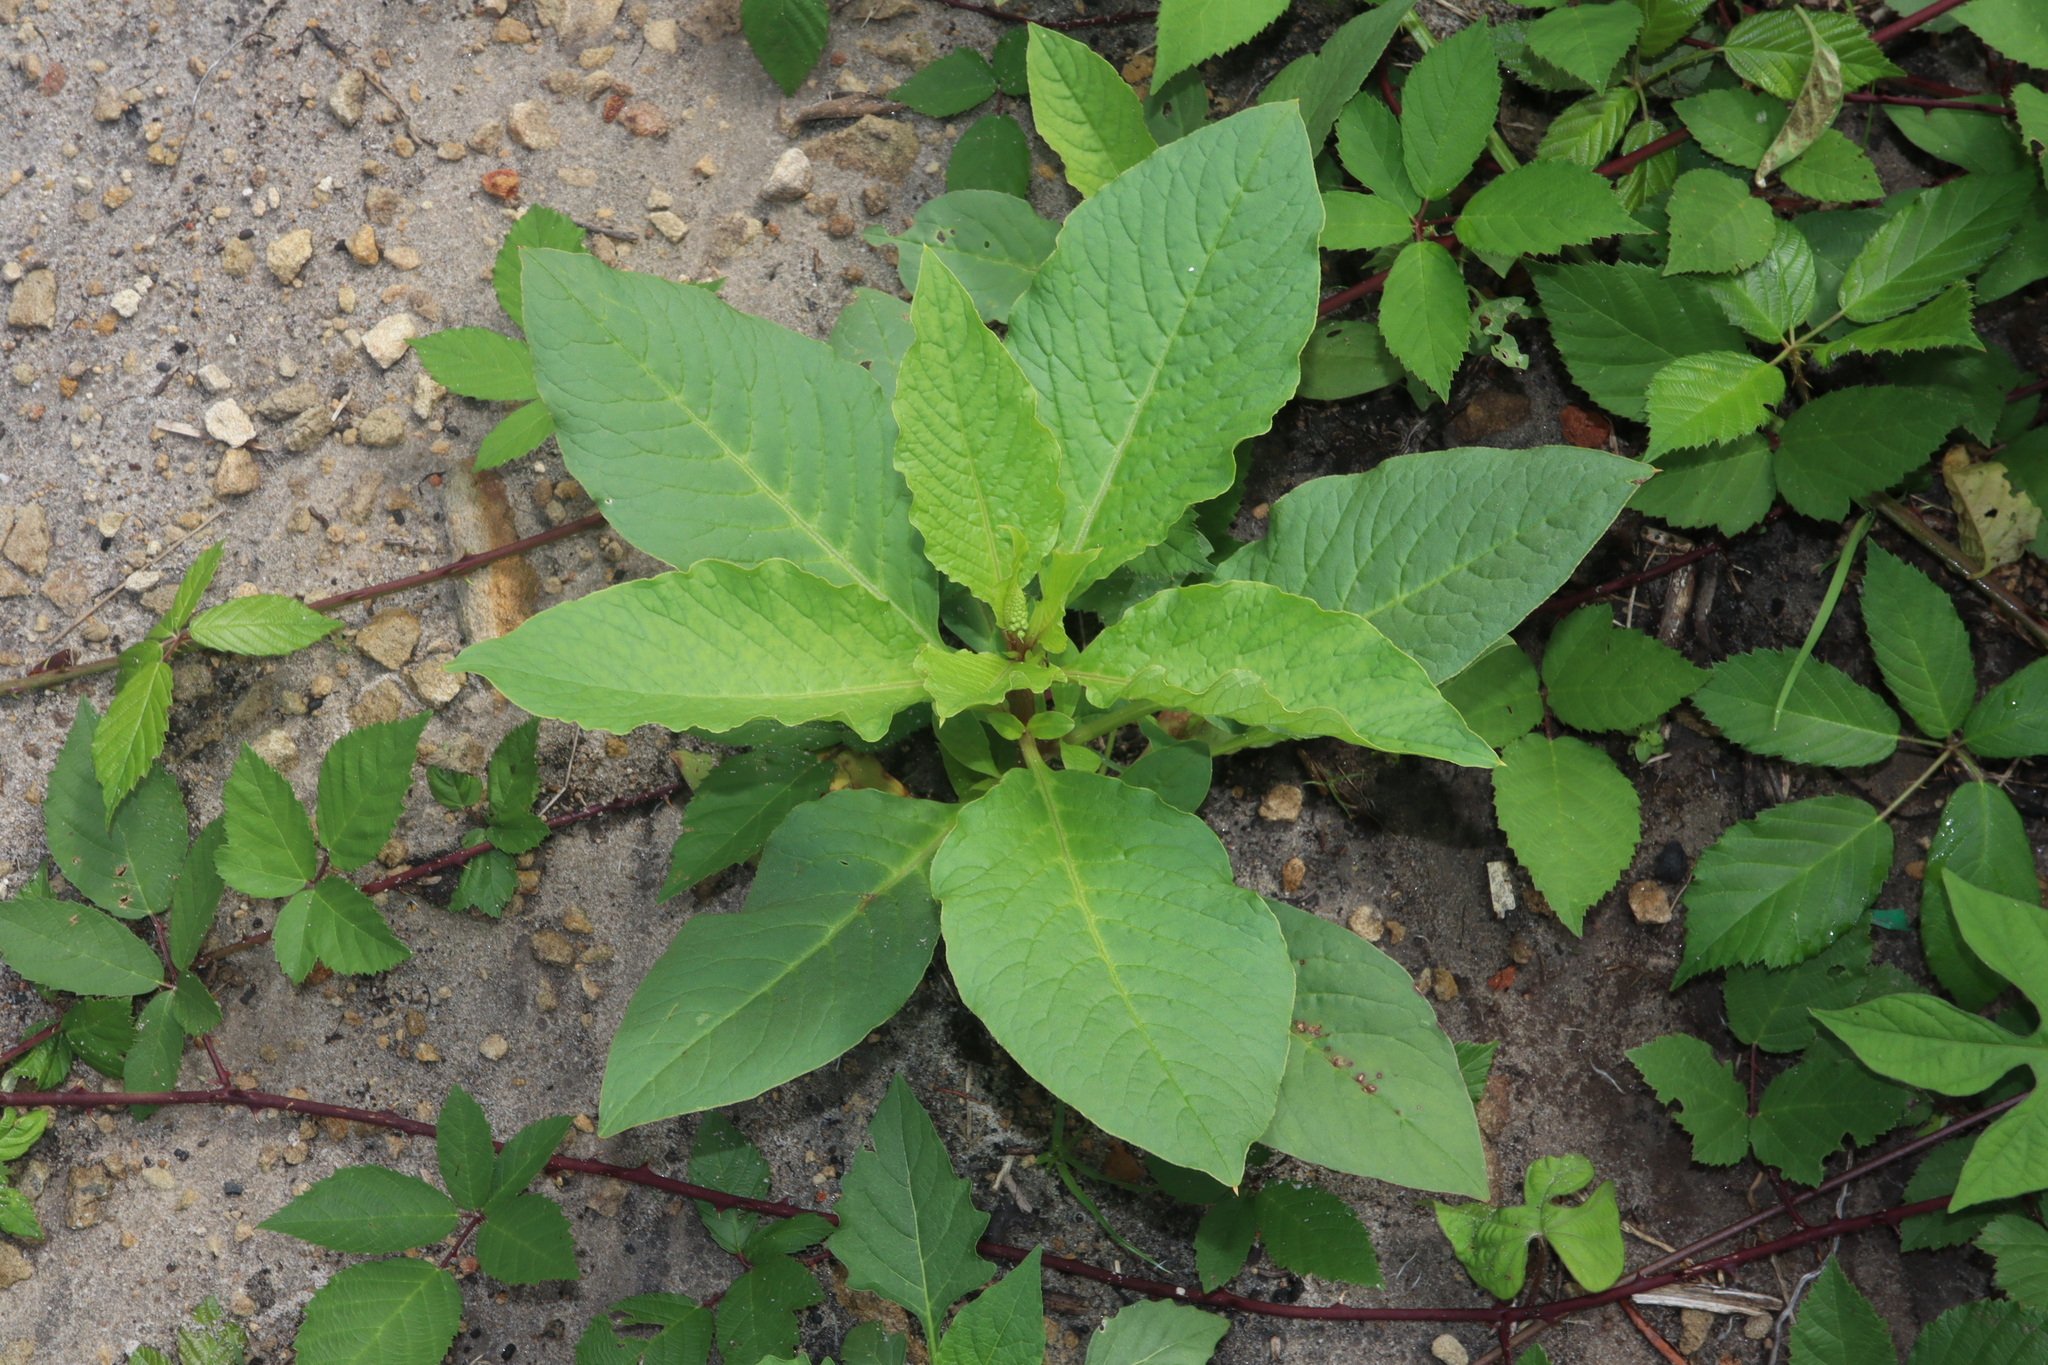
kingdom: Plantae
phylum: Tracheophyta
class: Magnoliopsida
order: Caryophyllales
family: Phytolaccaceae
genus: Phytolacca
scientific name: Phytolacca icosandra
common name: Button pokeweed
